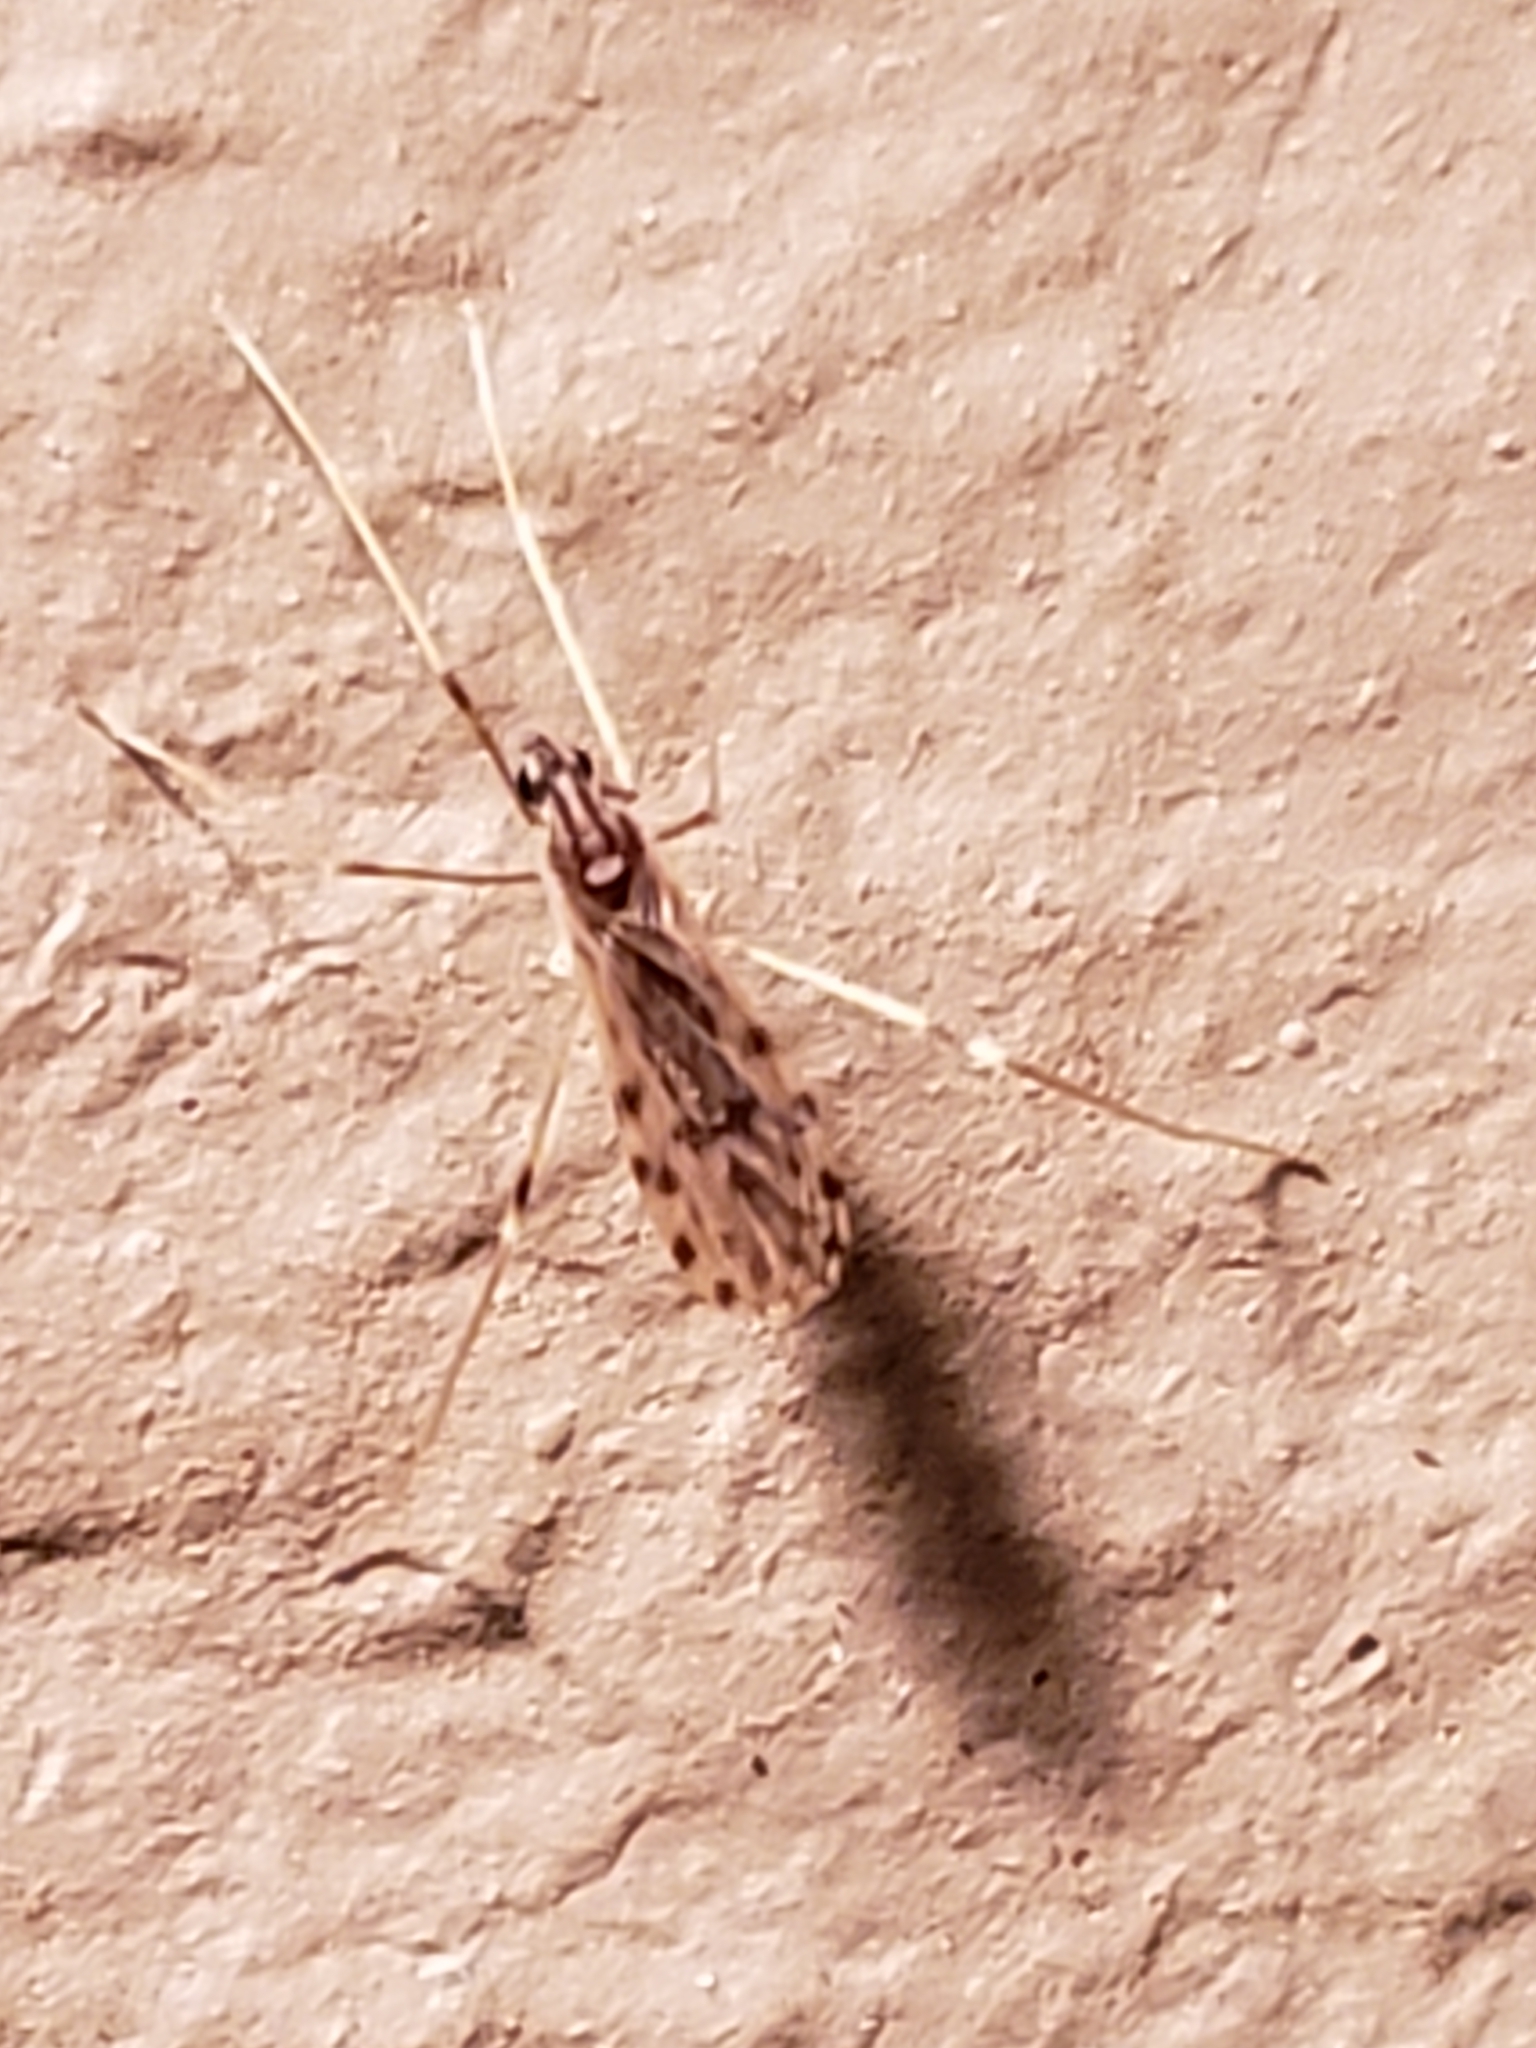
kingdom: Animalia
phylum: Arthropoda
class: Insecta
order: Diptera
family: Limoniidae
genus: Erioptera
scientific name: Erioptera parva
